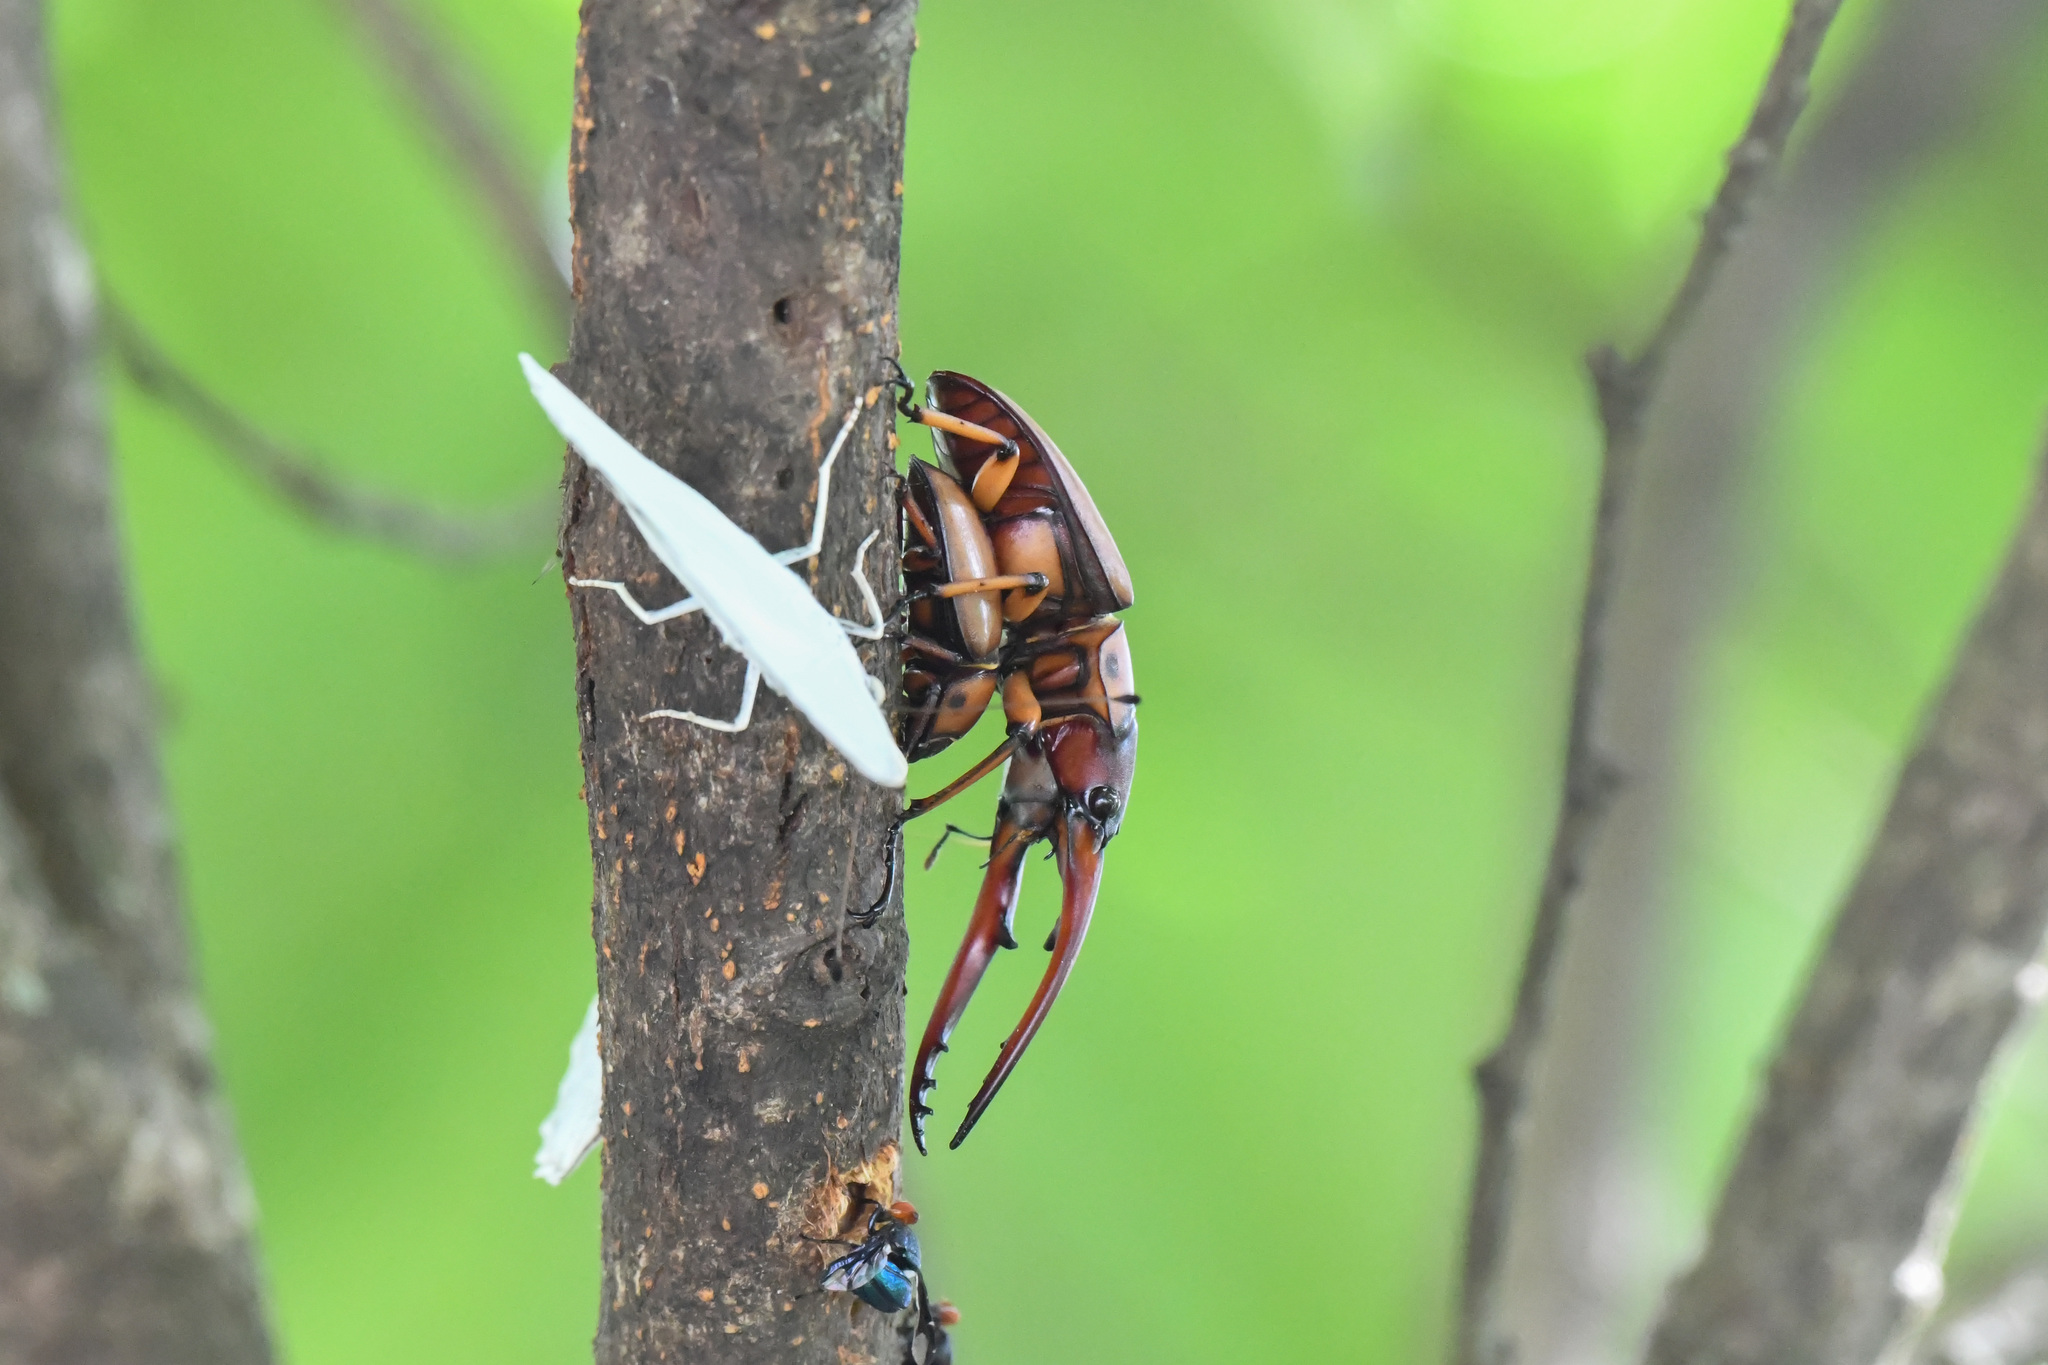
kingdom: Animalia
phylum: Arthropoda
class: Insecta
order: Coleoptera
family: Lucanidae
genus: Prosopocoilus
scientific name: Prosopocoilus astacoides
